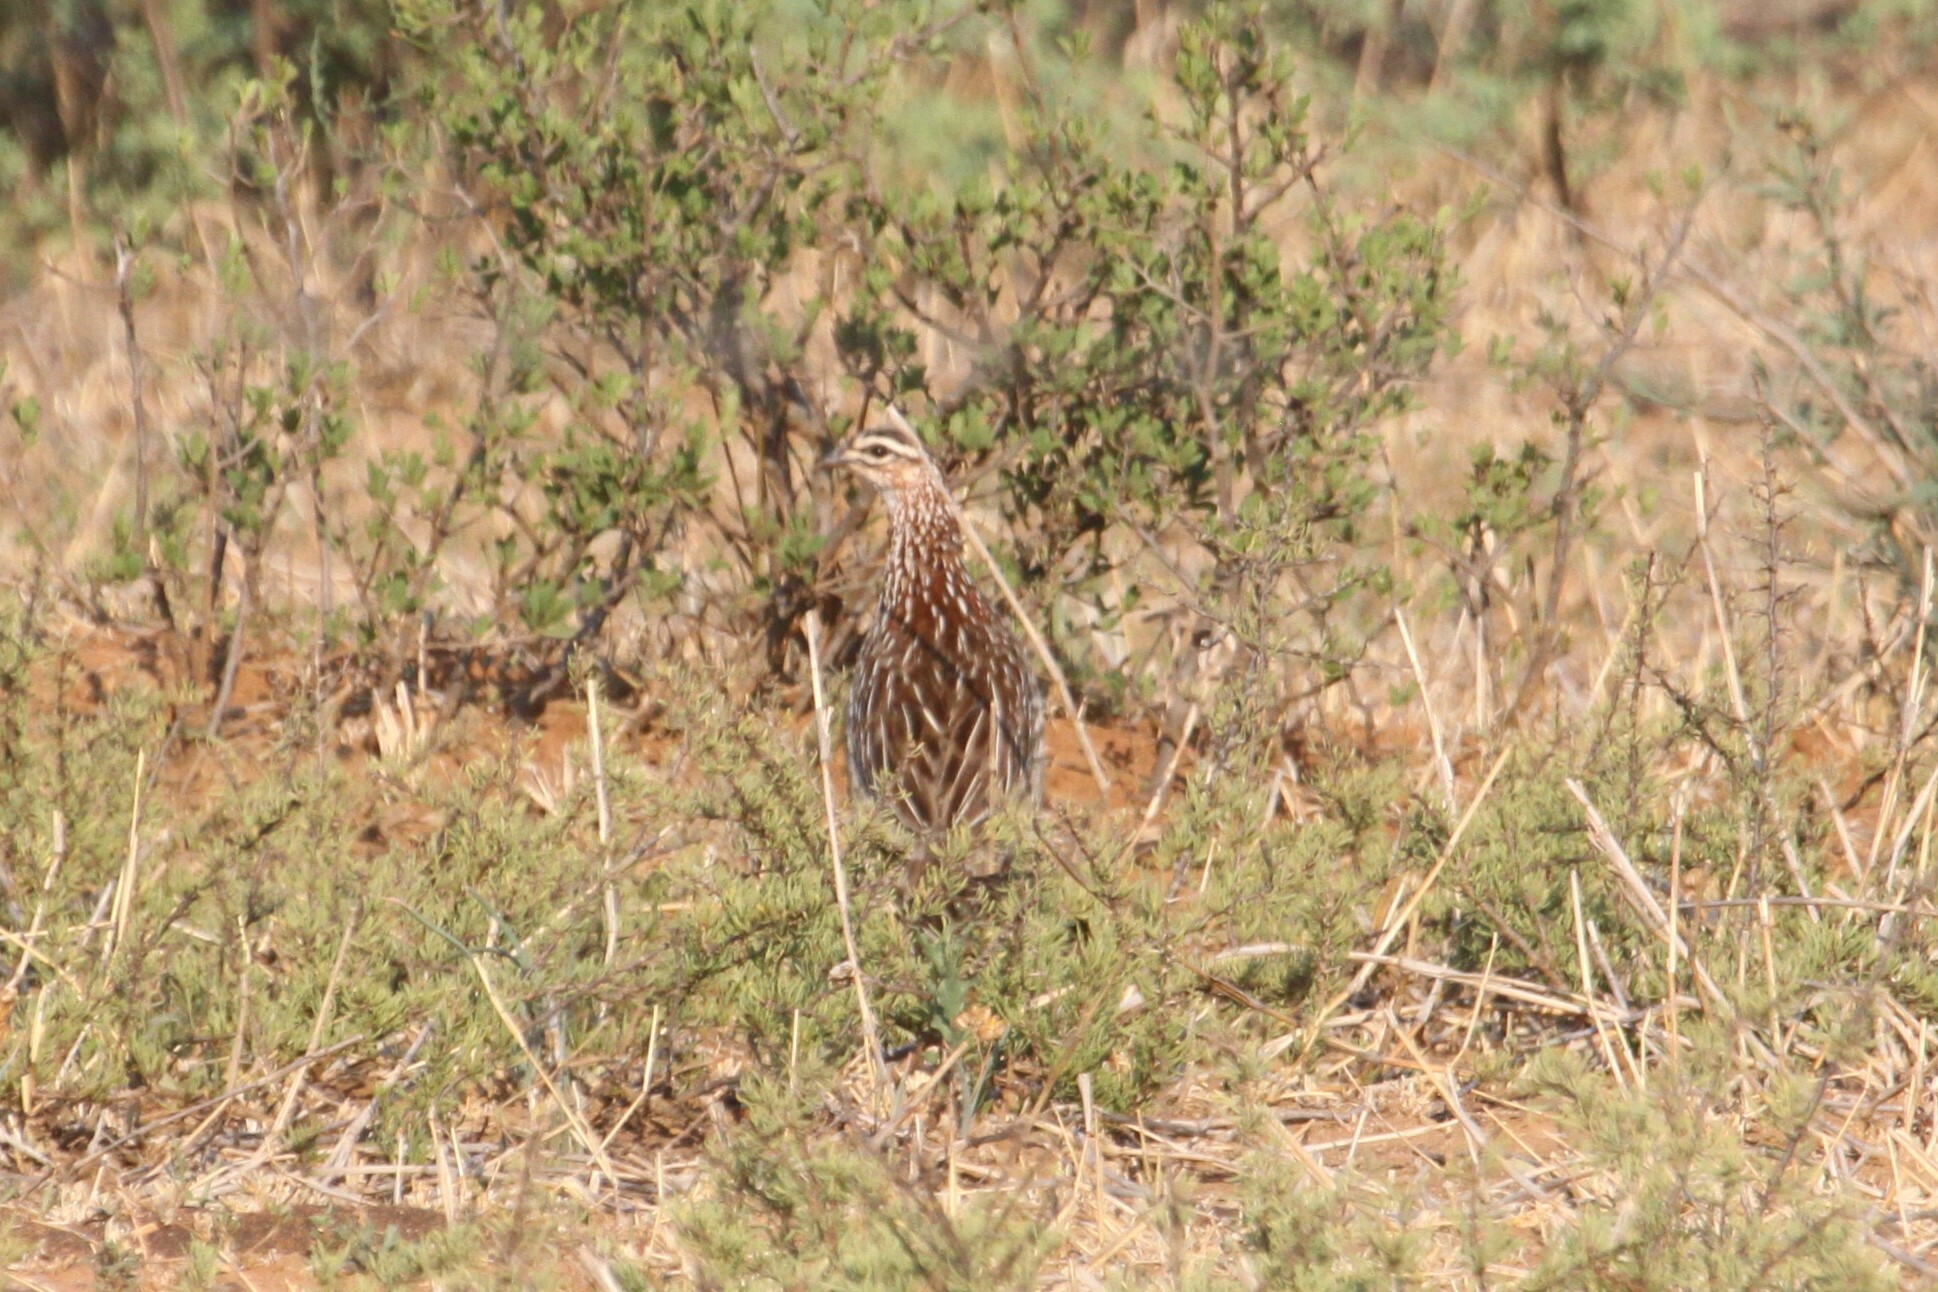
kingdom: Animalia
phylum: Chordata
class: Aves
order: Galliformes
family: Phasianidae
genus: Ortygornis
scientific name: Ortygornis sephaena
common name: Crested francolin
